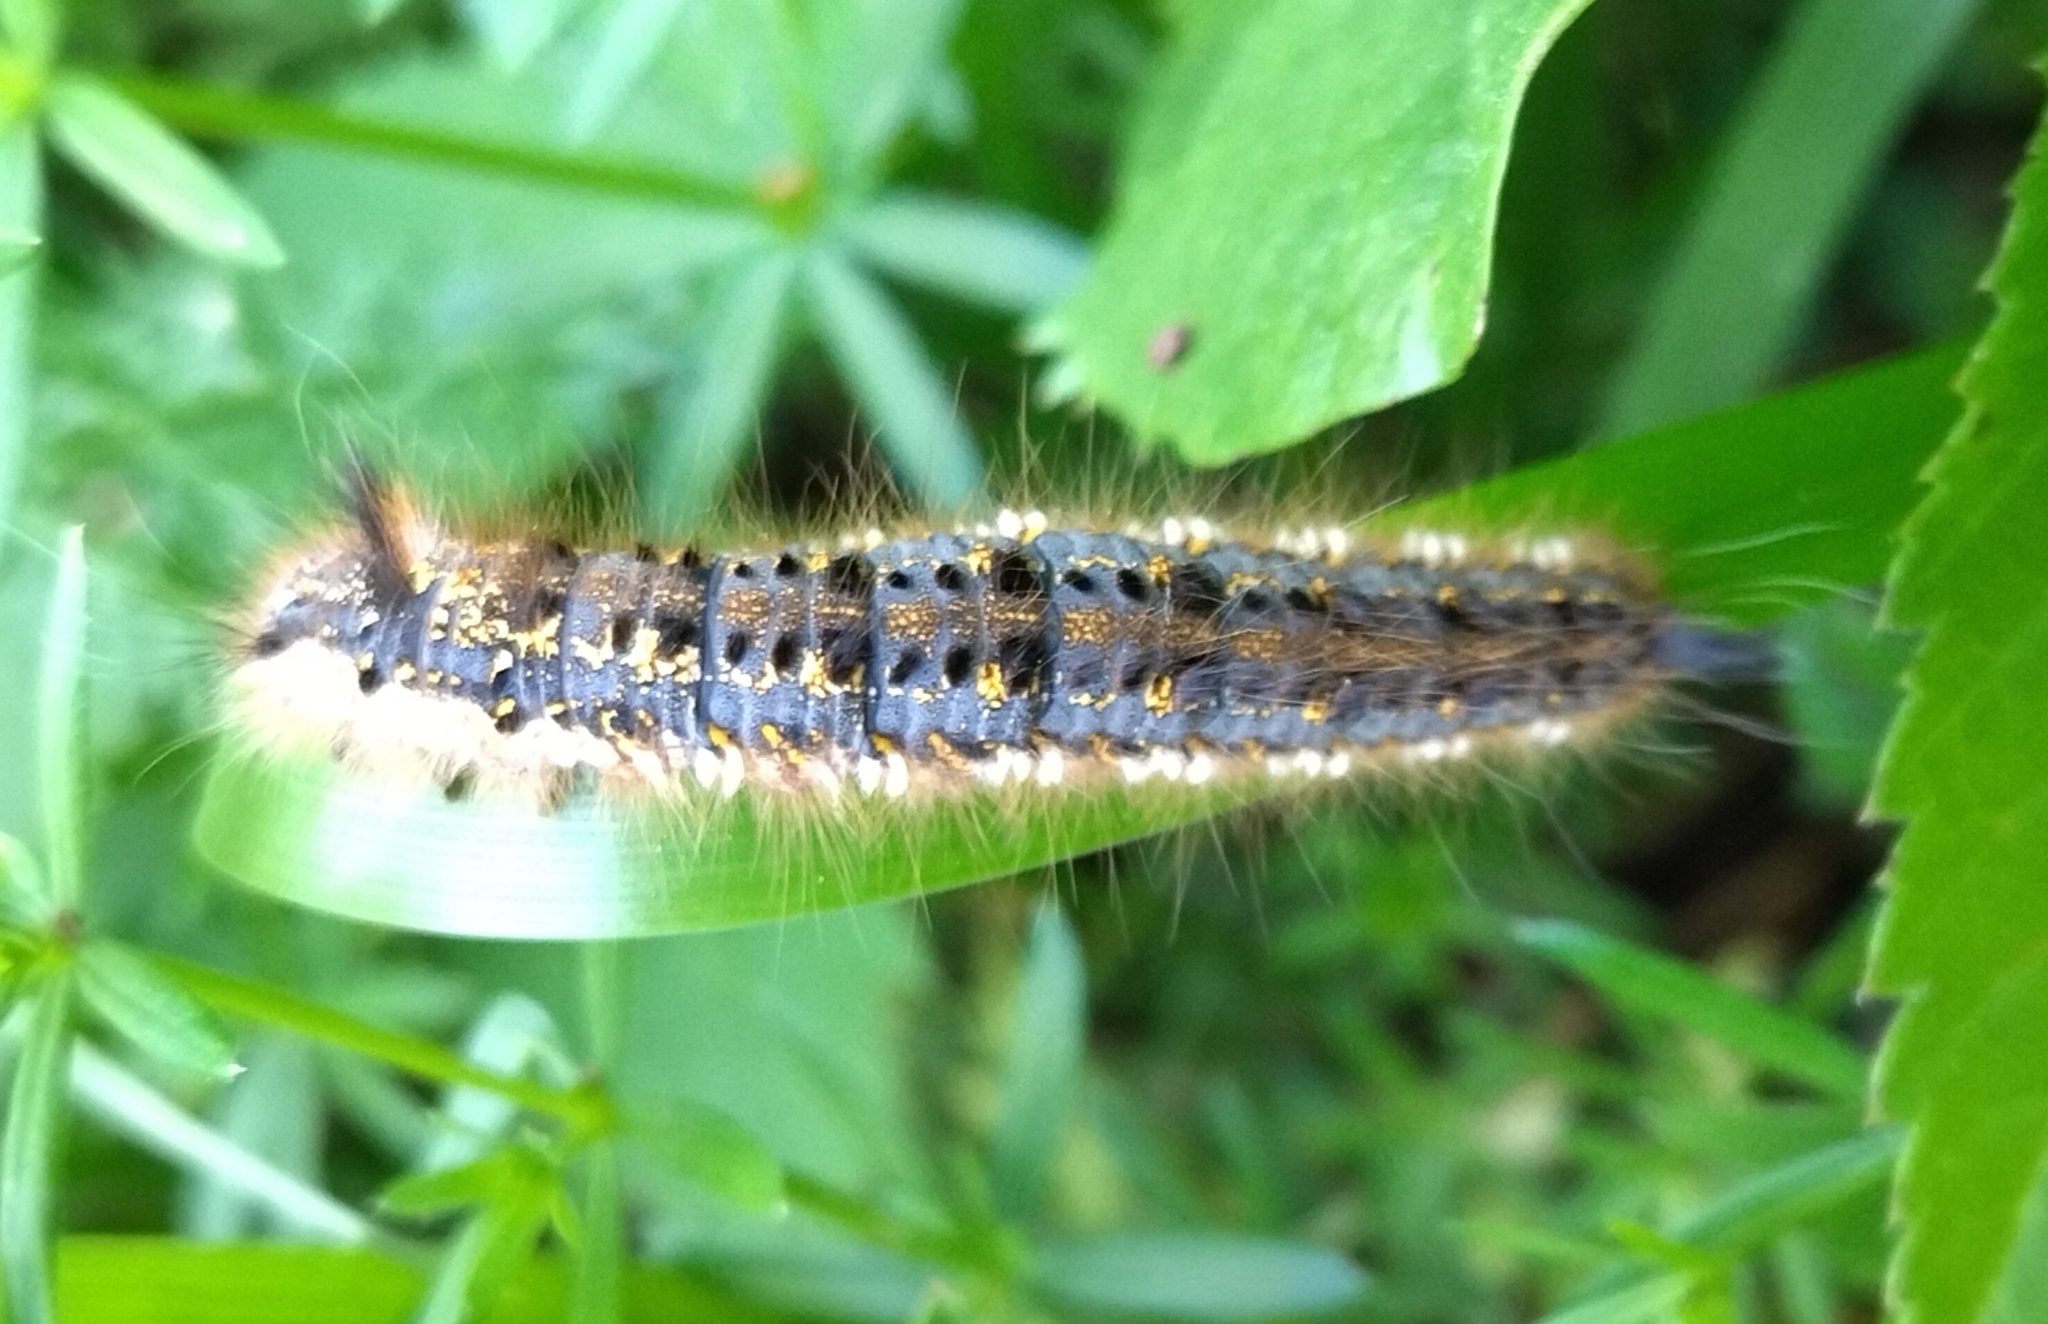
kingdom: Animalia
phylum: Arthropoda
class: Insecta
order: Lepidoptera
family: Lasiocampidae
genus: Euthrix
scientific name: Euthrix potatoria
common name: Drinker
